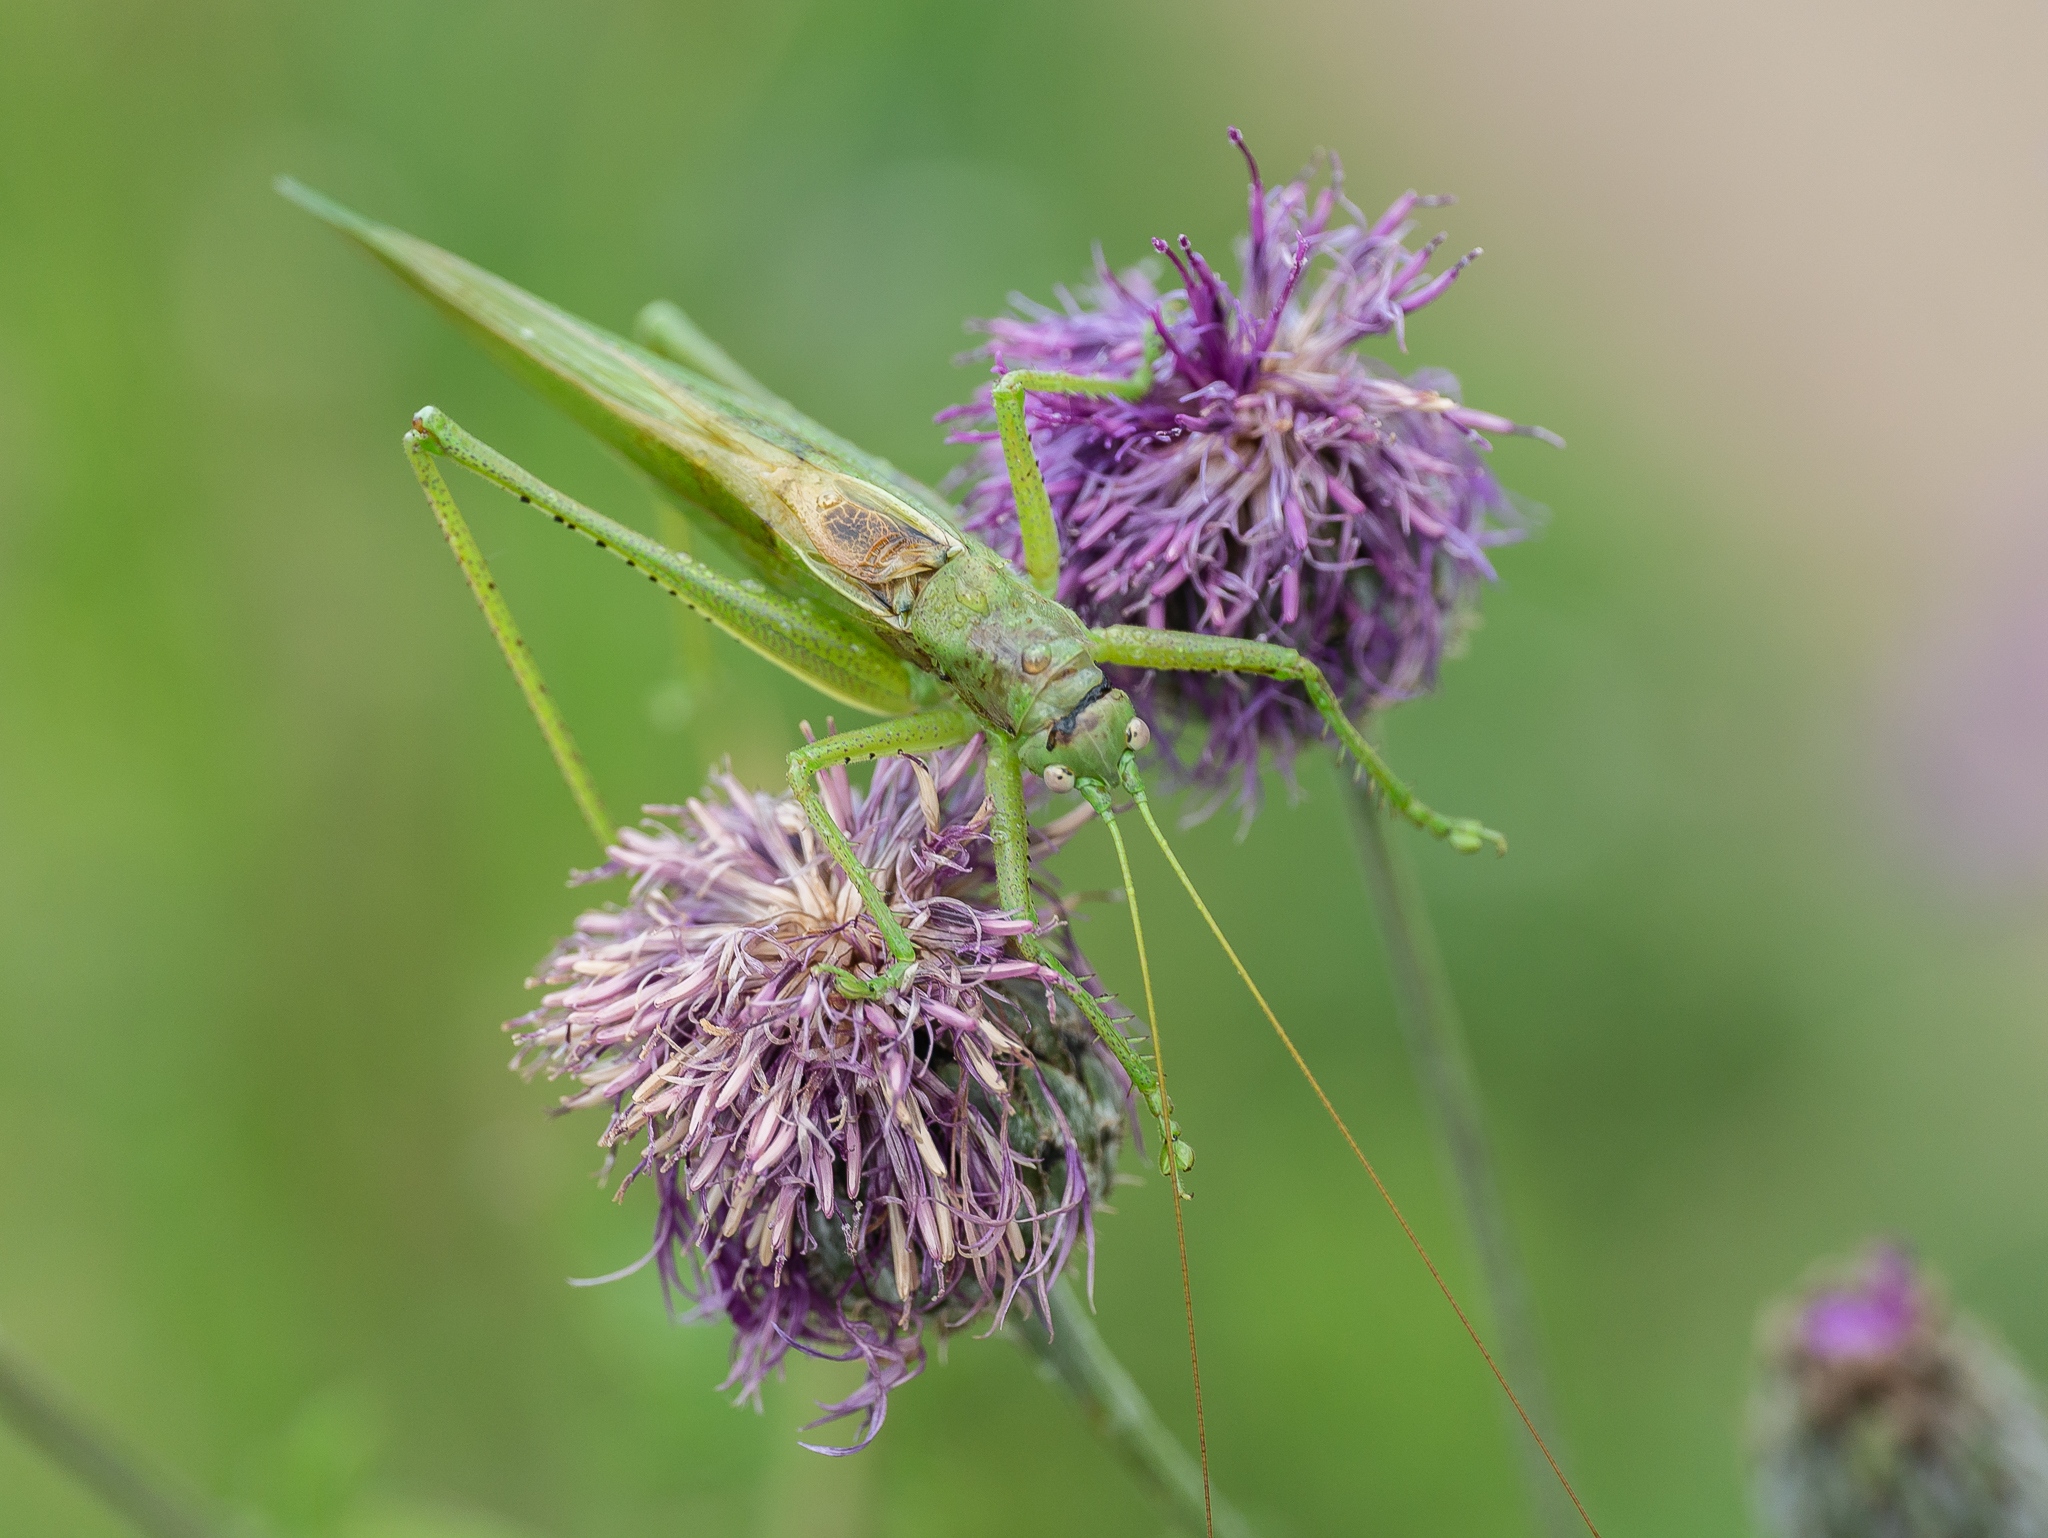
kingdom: Animalia
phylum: Arthropoda
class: Insecta
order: Orthoptera
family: Tettigoniidae
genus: Tettigonia
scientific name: Tettigonia caudata
